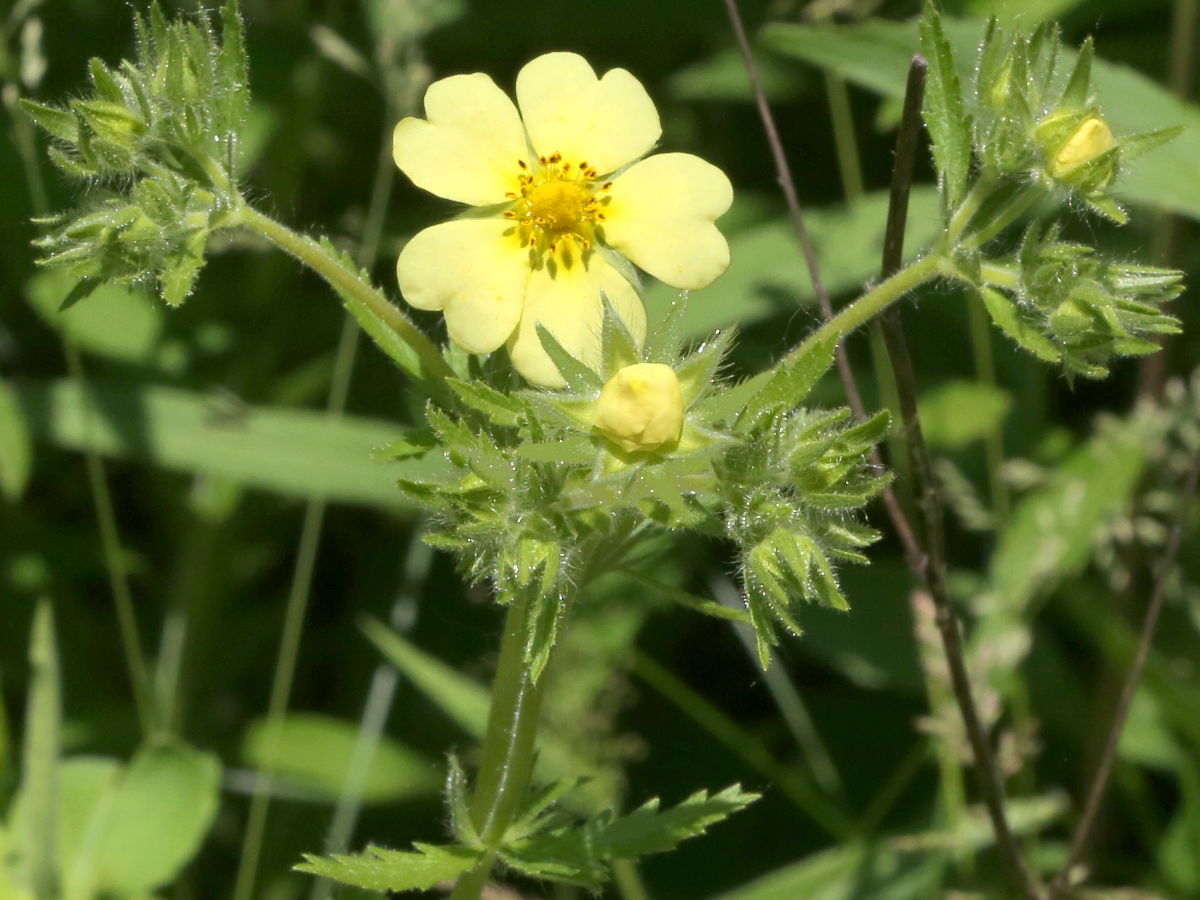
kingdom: Plantae
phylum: Tracheophyta
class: Magnoliopsida
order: Rosales
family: Rosaceae
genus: Potentilla
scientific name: Potentilla recta
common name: Sulphur cinquefoil
